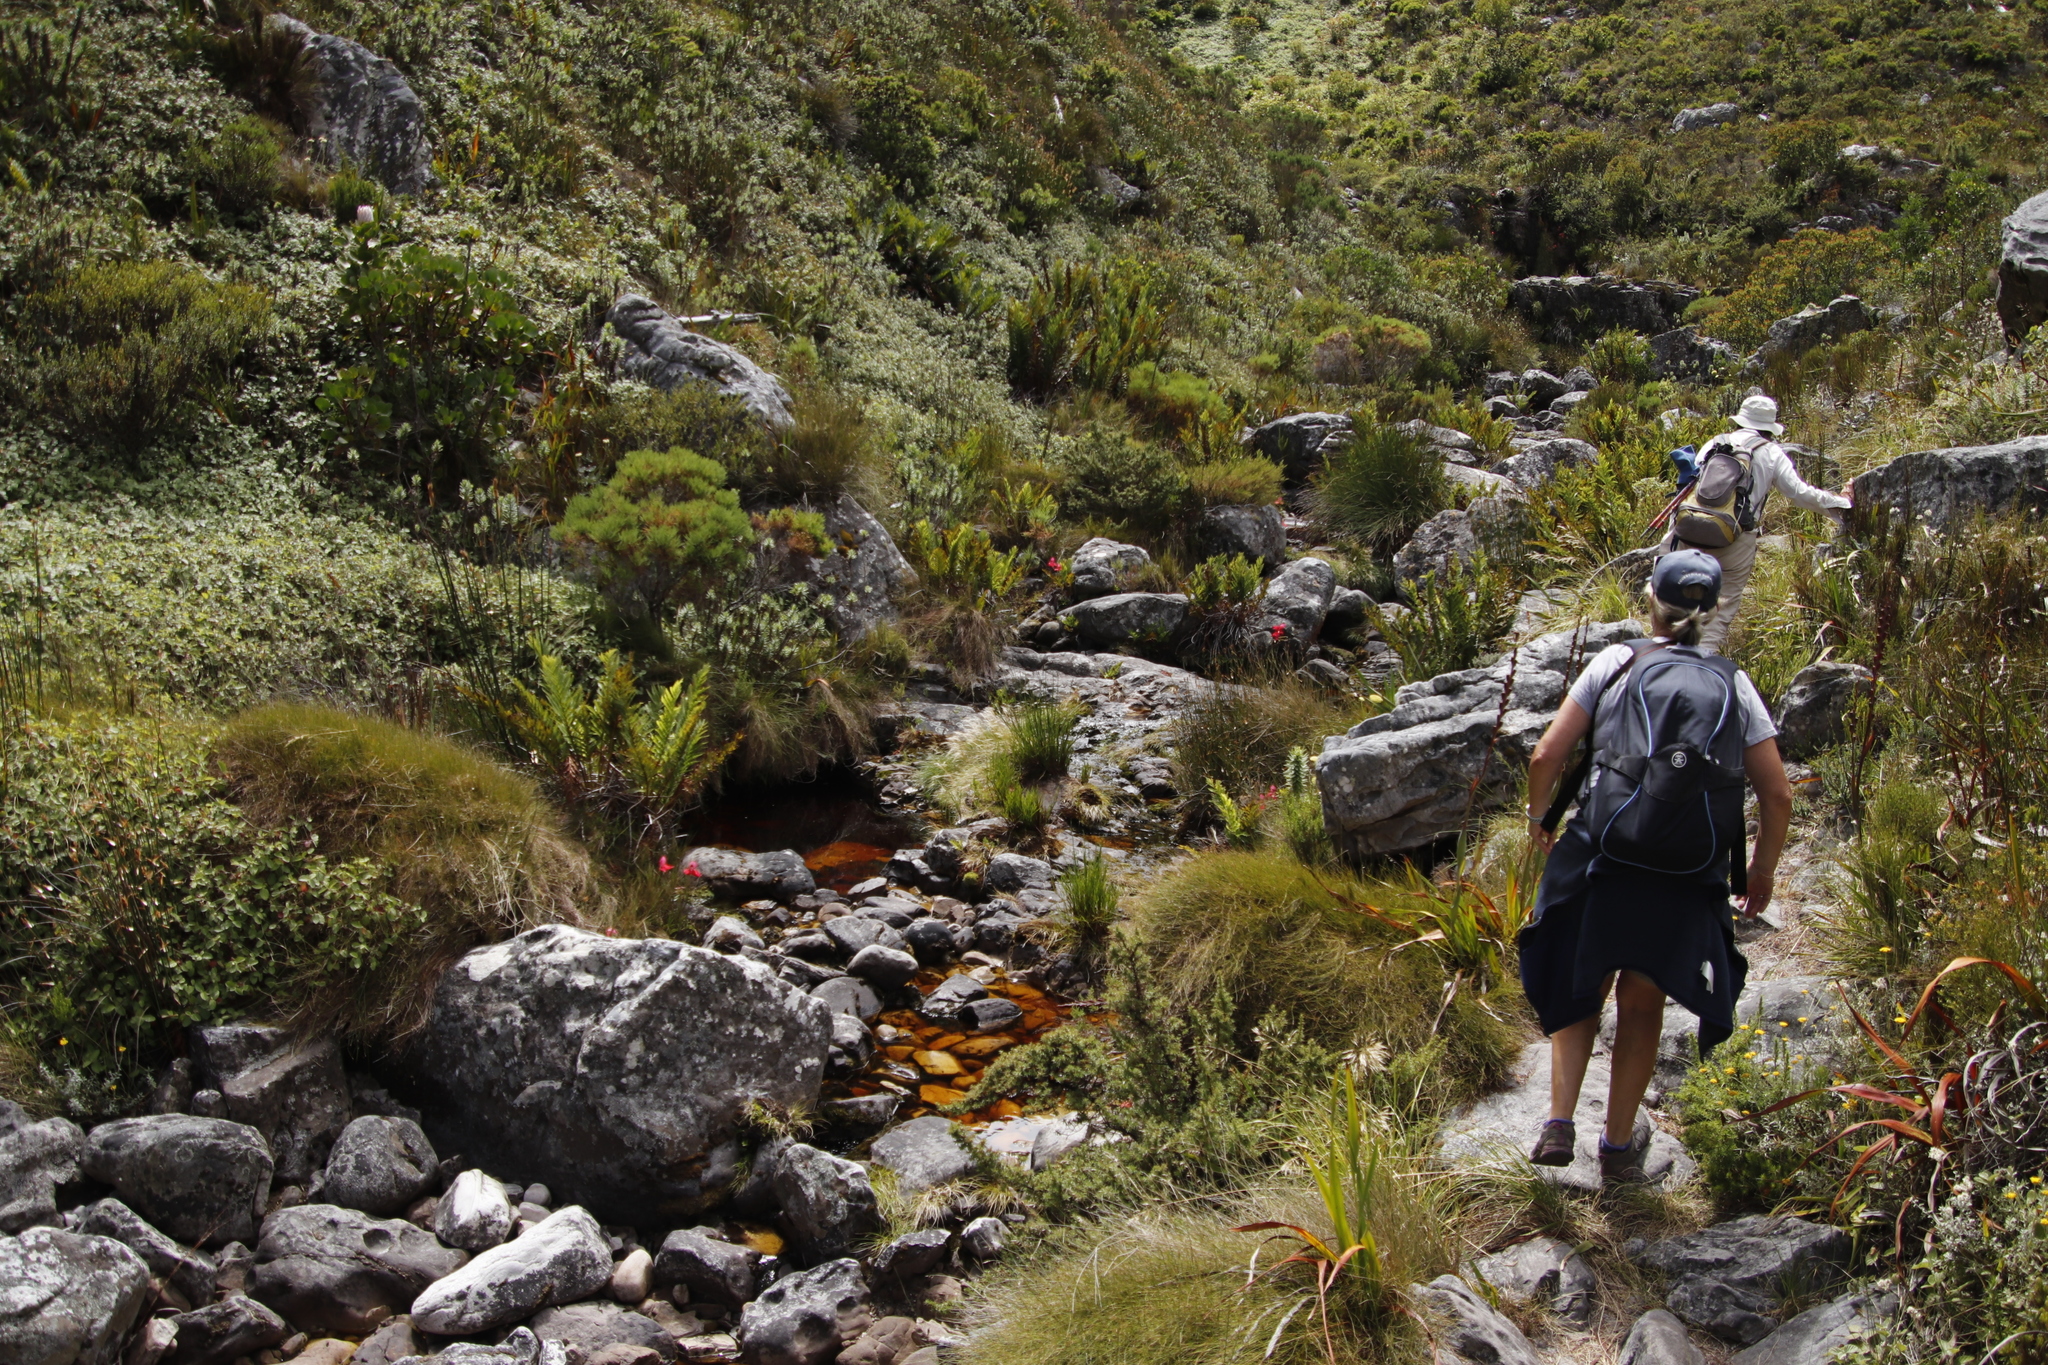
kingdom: Plantae
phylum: Tracheophyta
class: Liliopsida
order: Asparagales
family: Orchidaceae
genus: Disa
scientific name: Disa uniflora
